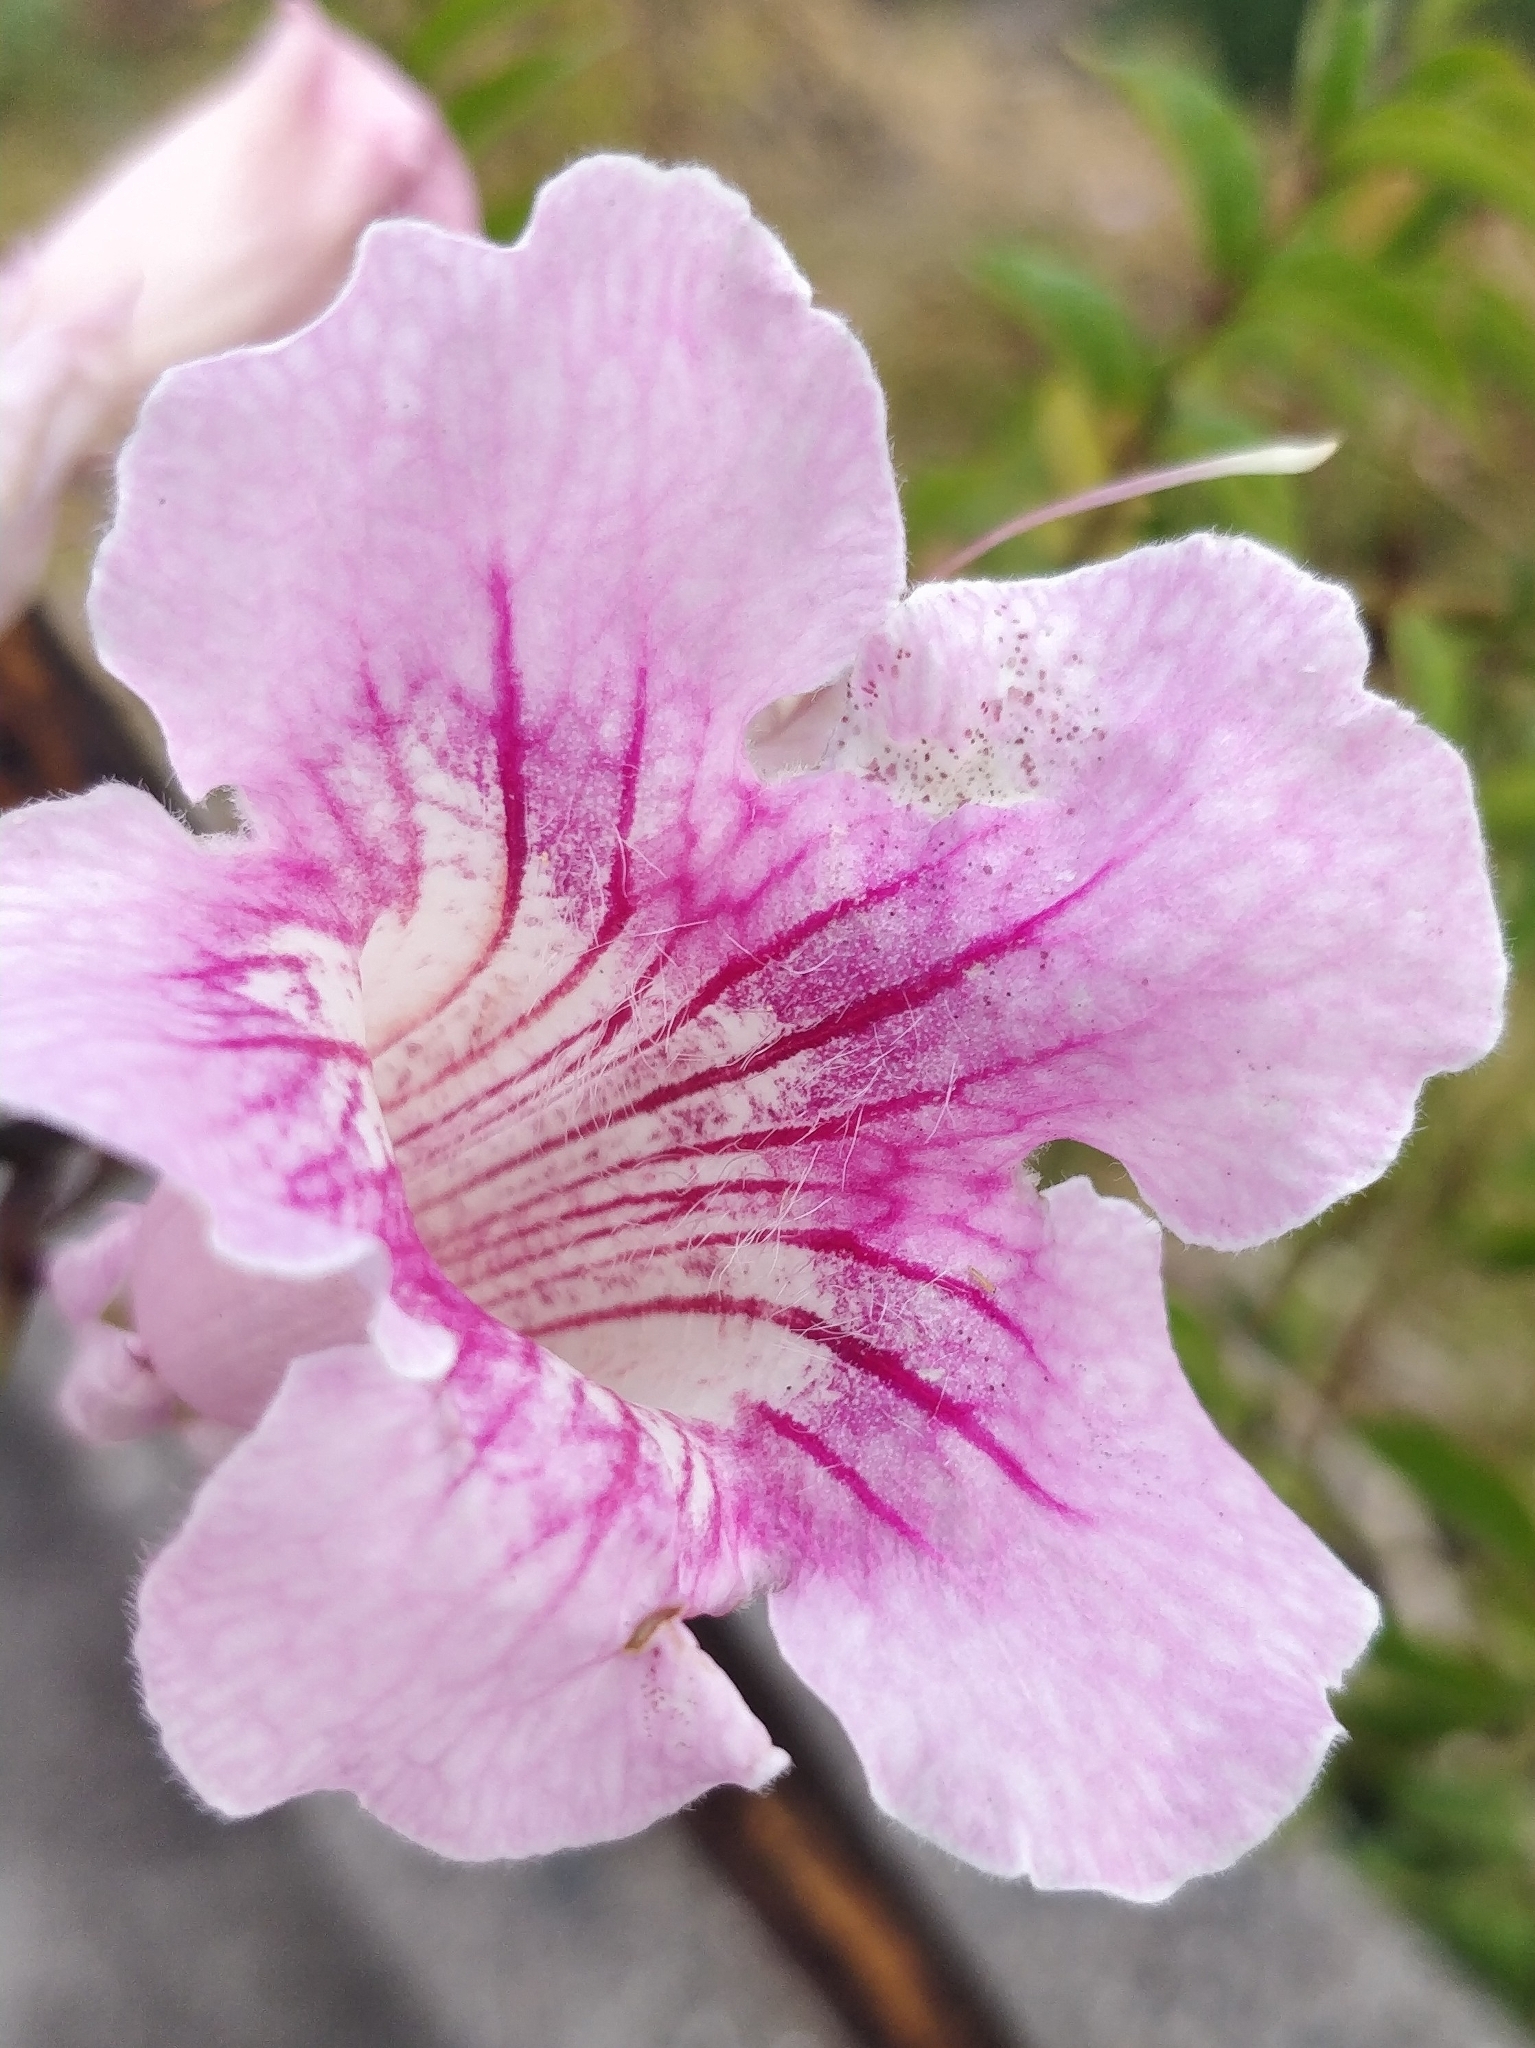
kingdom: Plantae
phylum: Tracheophyta
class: Magnoliopsida
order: Lamiales
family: Bignoniaceae
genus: Podranea
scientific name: Podranea ricasoliana
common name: Zimbabwe creeper
